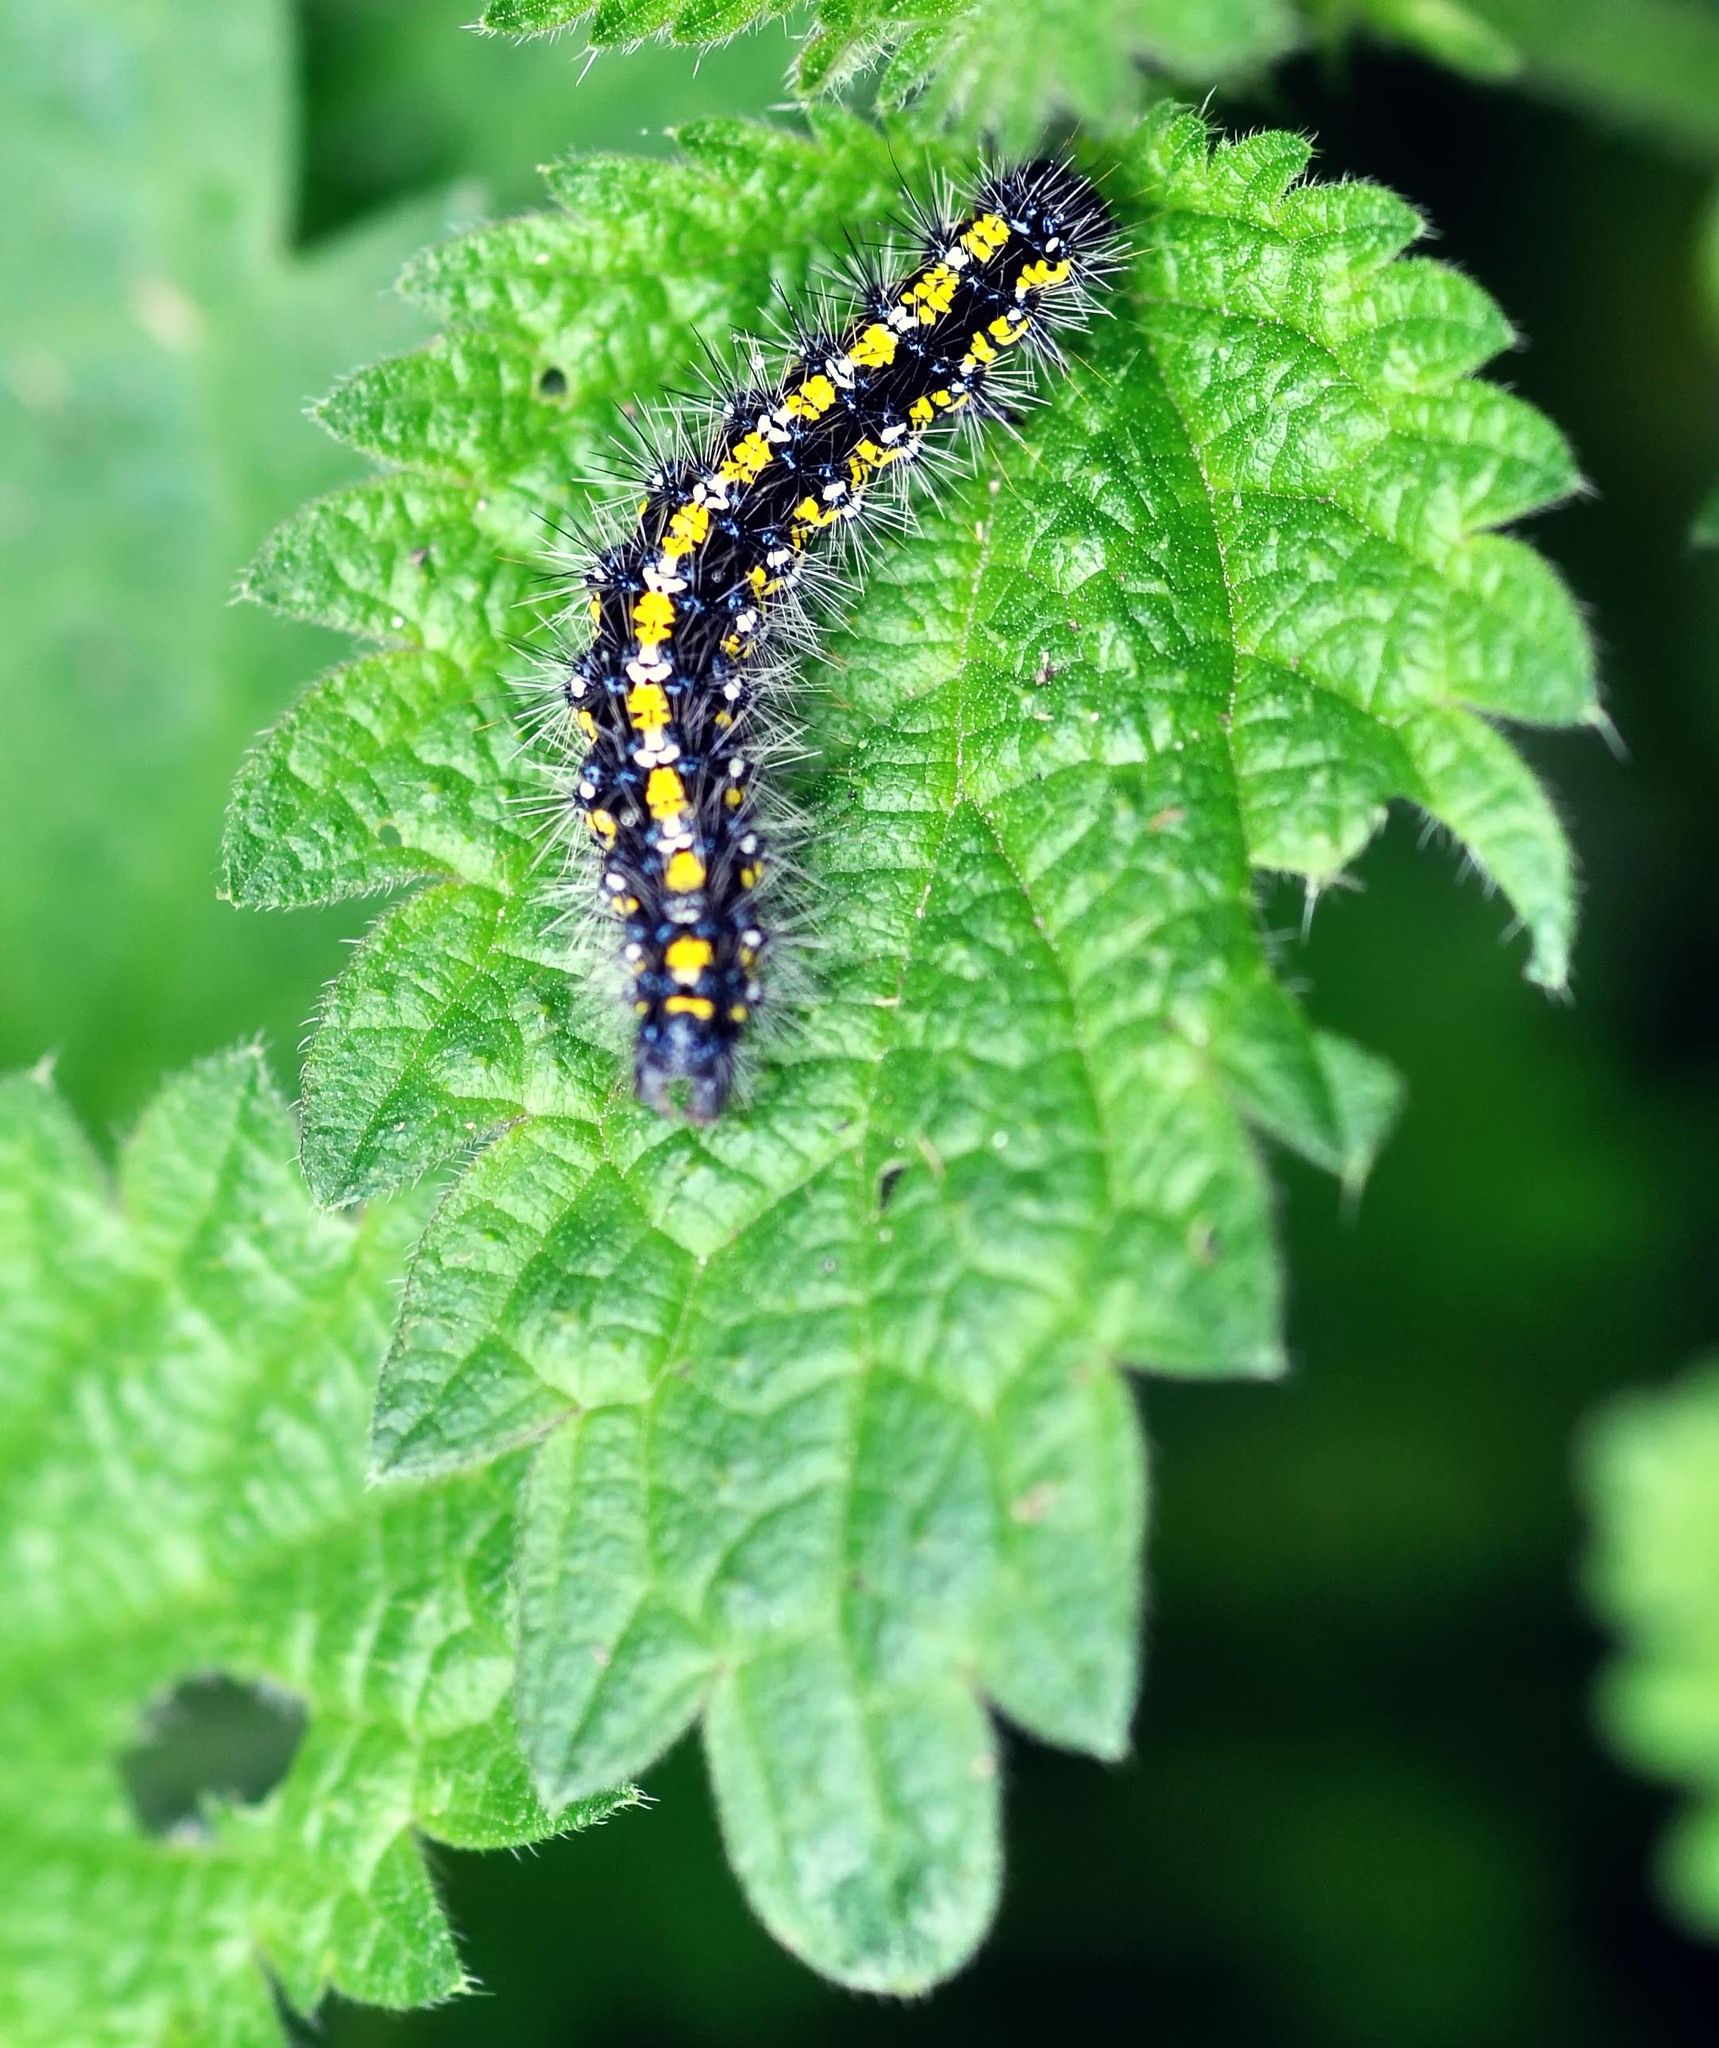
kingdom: Animalia
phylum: Arthropoda
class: Insecta
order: Lepidoptera
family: Erebidae
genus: Callimorpha
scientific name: Callimorpha dominula
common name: Scarlet tiger
